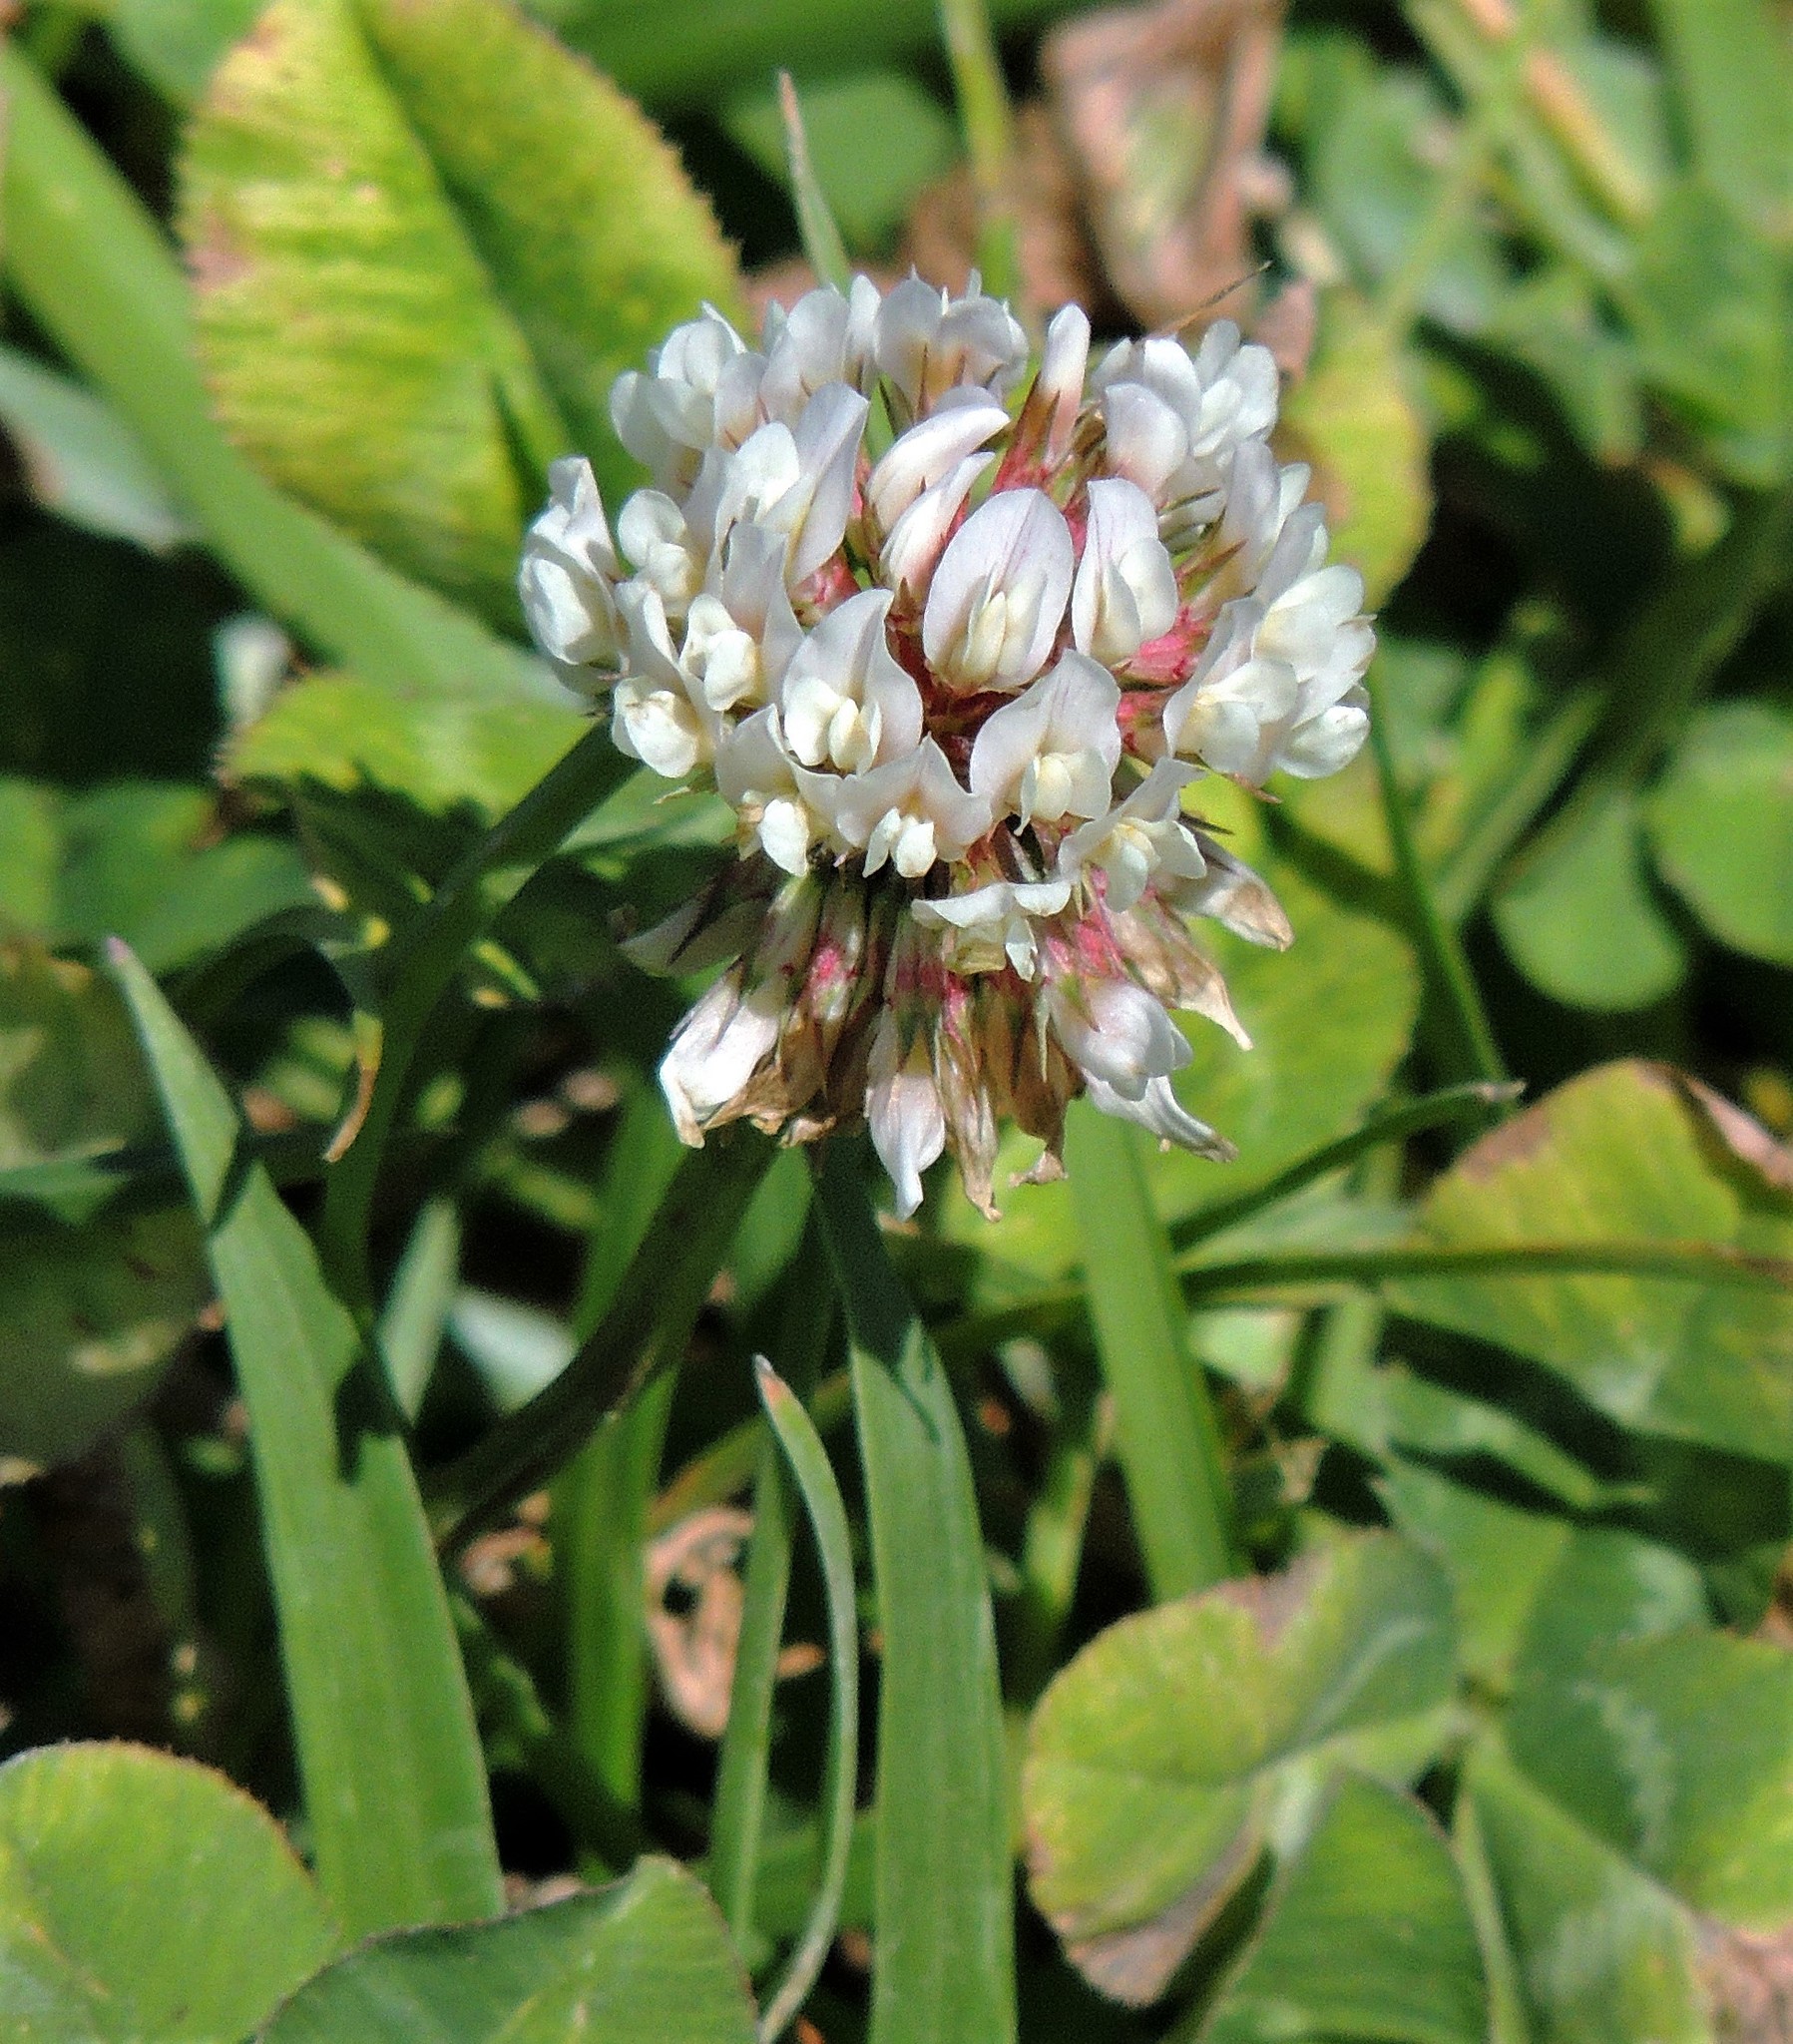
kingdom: Plantae
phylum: Tracheophyta
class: Magnoliopsida
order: Fabales
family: Fabaceae
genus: Trifolium
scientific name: Trifolium repens
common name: White clover
